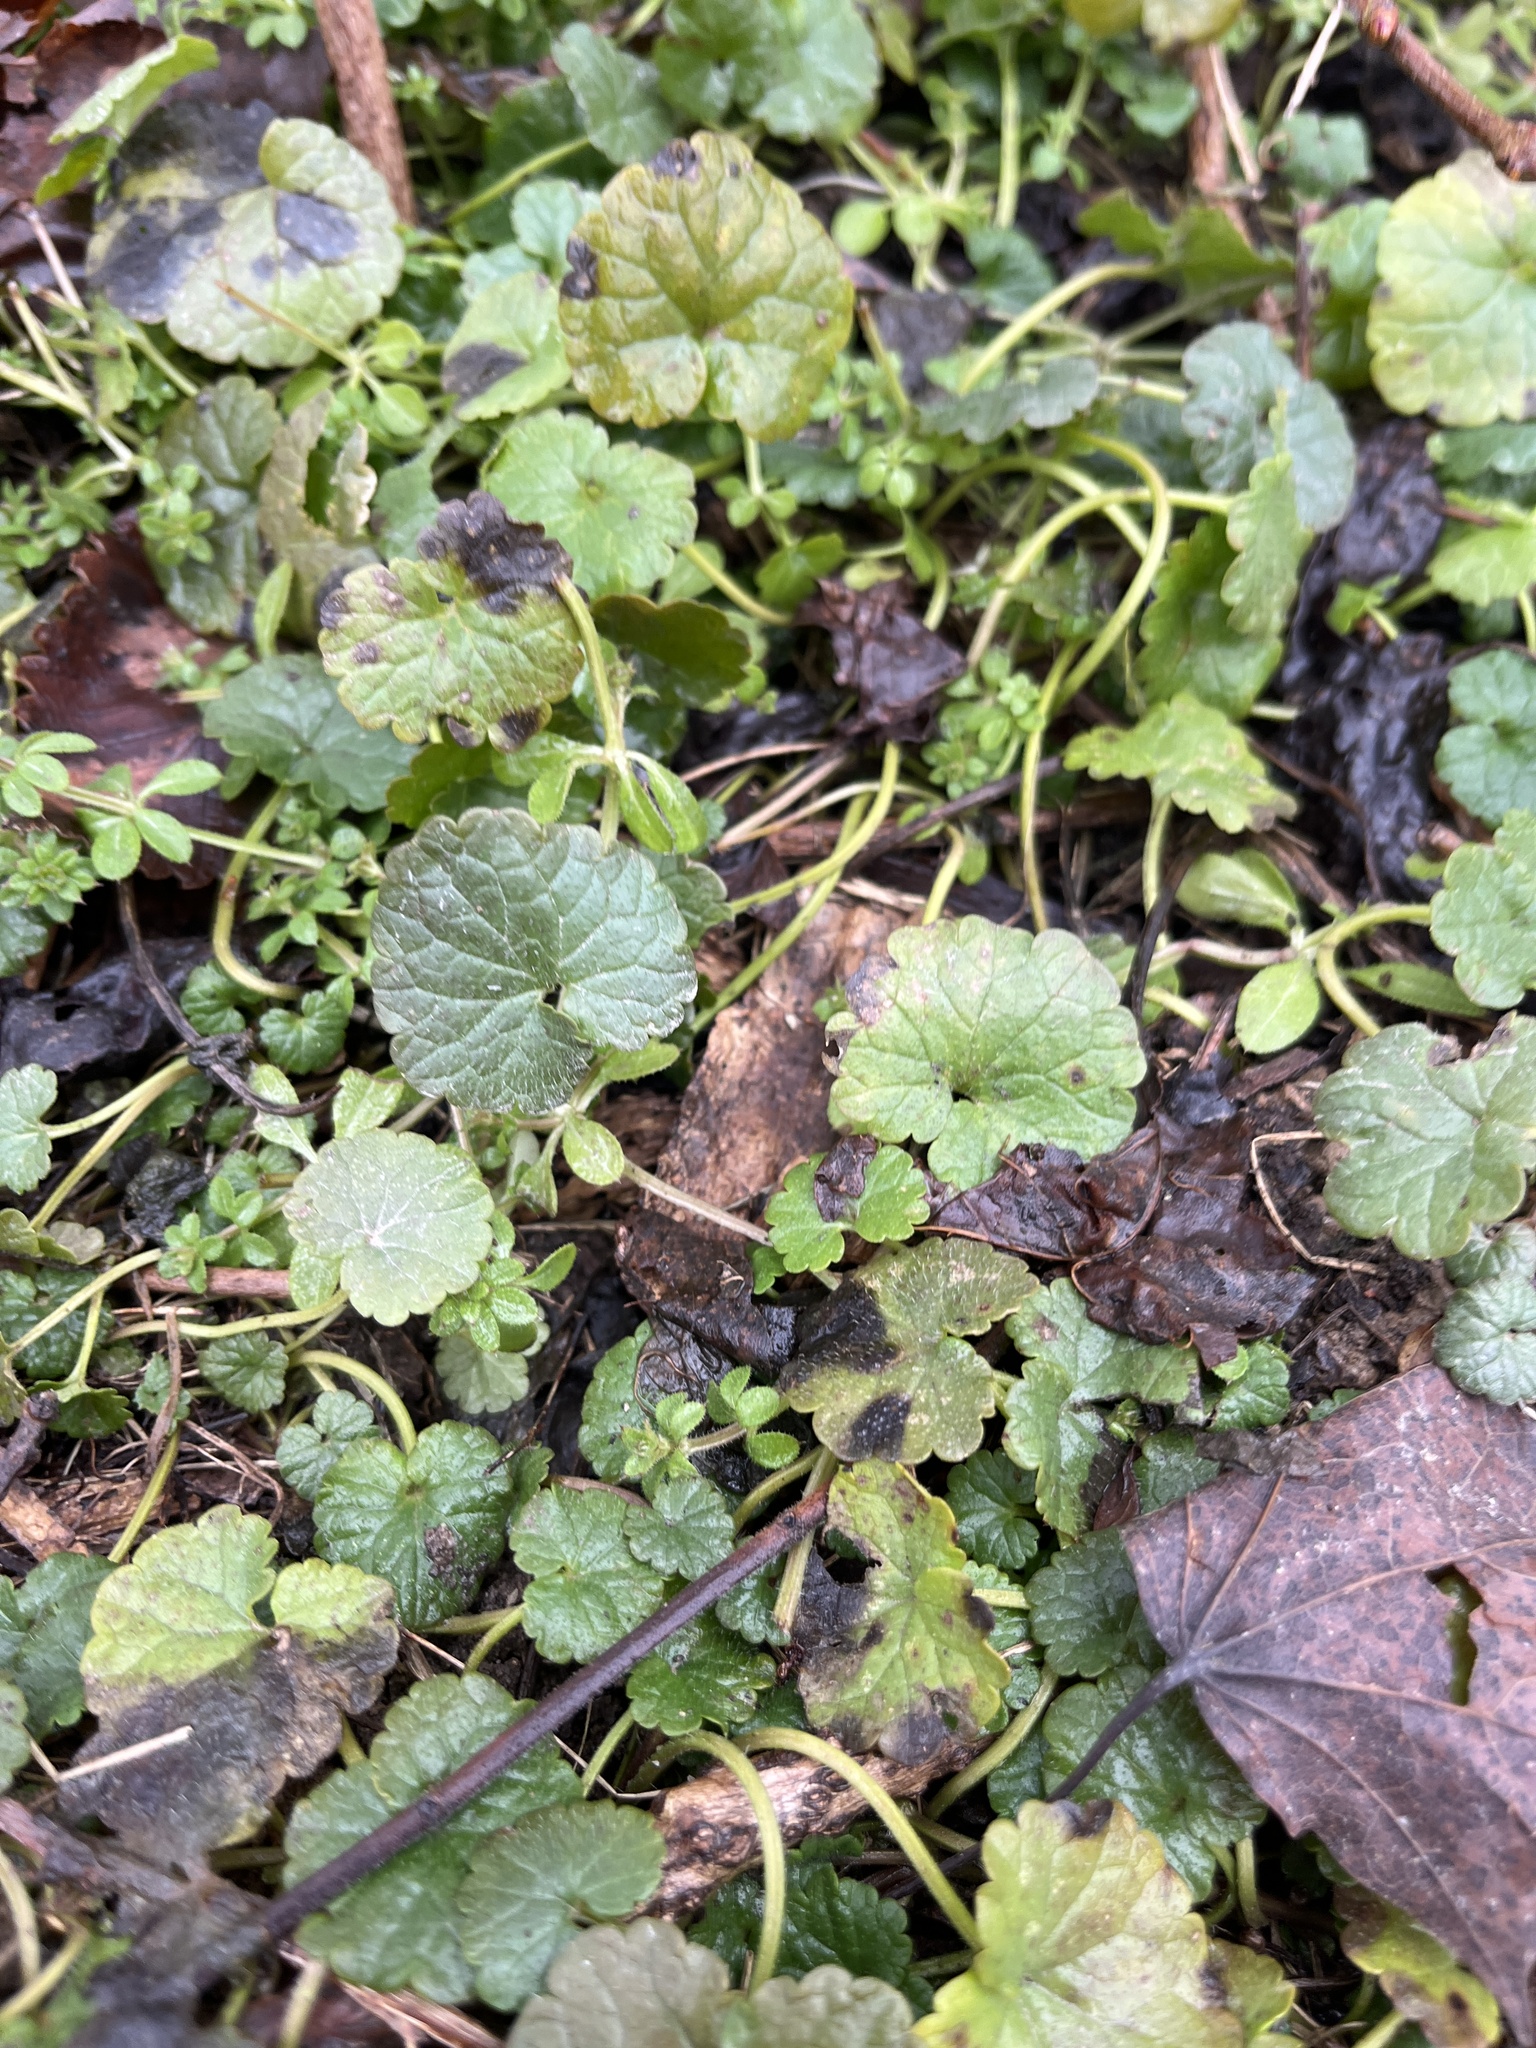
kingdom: Plantae
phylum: Tracheophyta
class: Magnoliopsida
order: Lamiales
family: Lamiaceae
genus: Glechoma
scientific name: Glechoma hederacea
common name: Ground ivy
